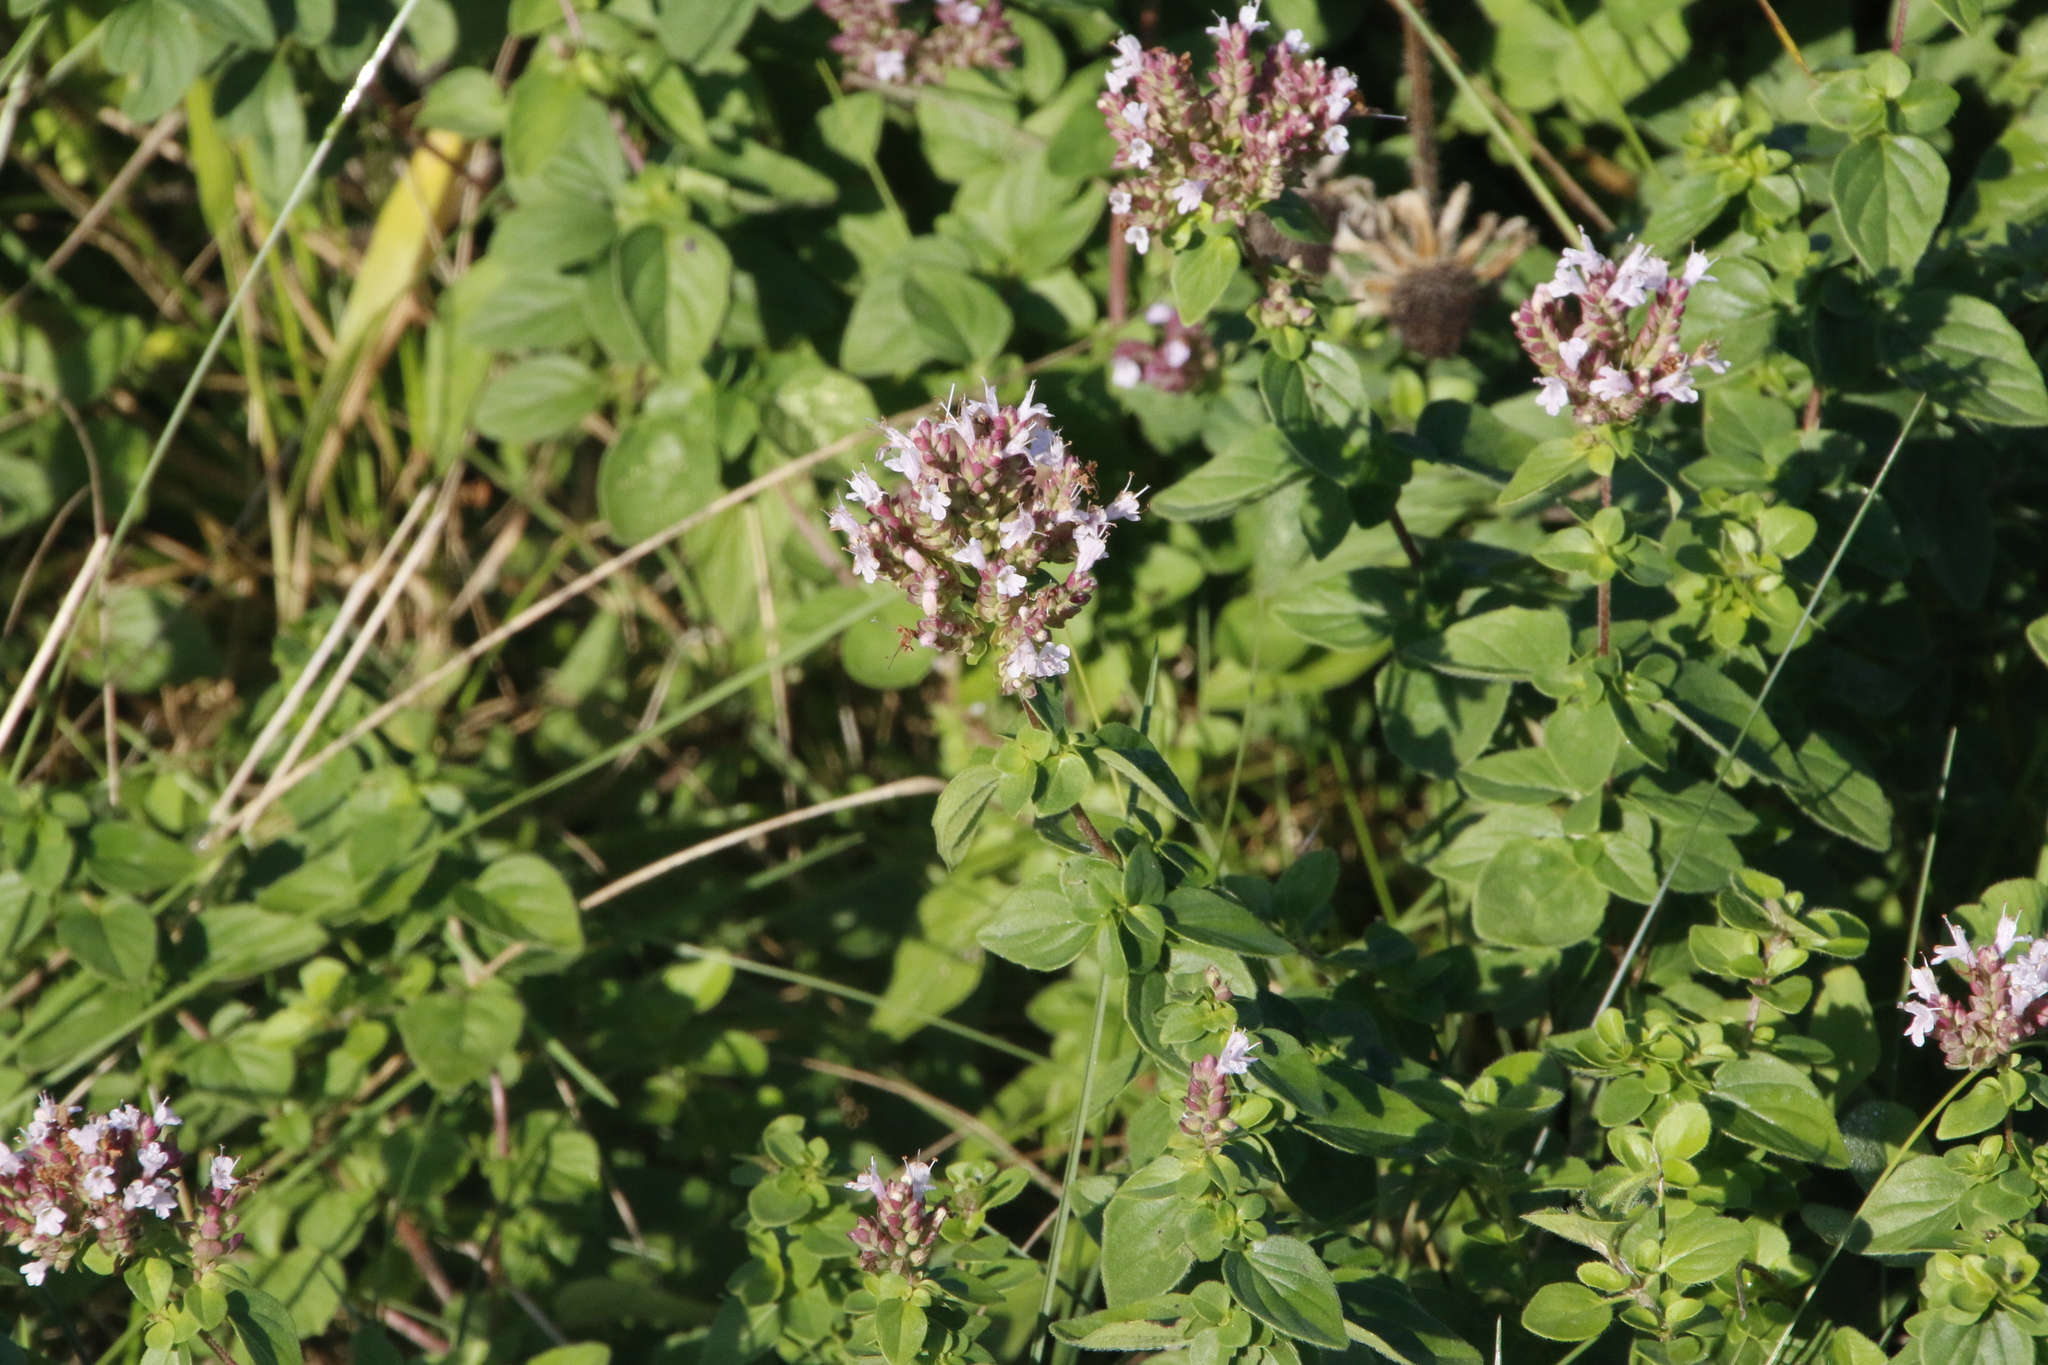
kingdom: Plantae
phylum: Tracheophyta
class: Magnoliopsida
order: Lamiales
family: Lamiaceae
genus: Origanum
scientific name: Origanum vulgare
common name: Wild marjoram
